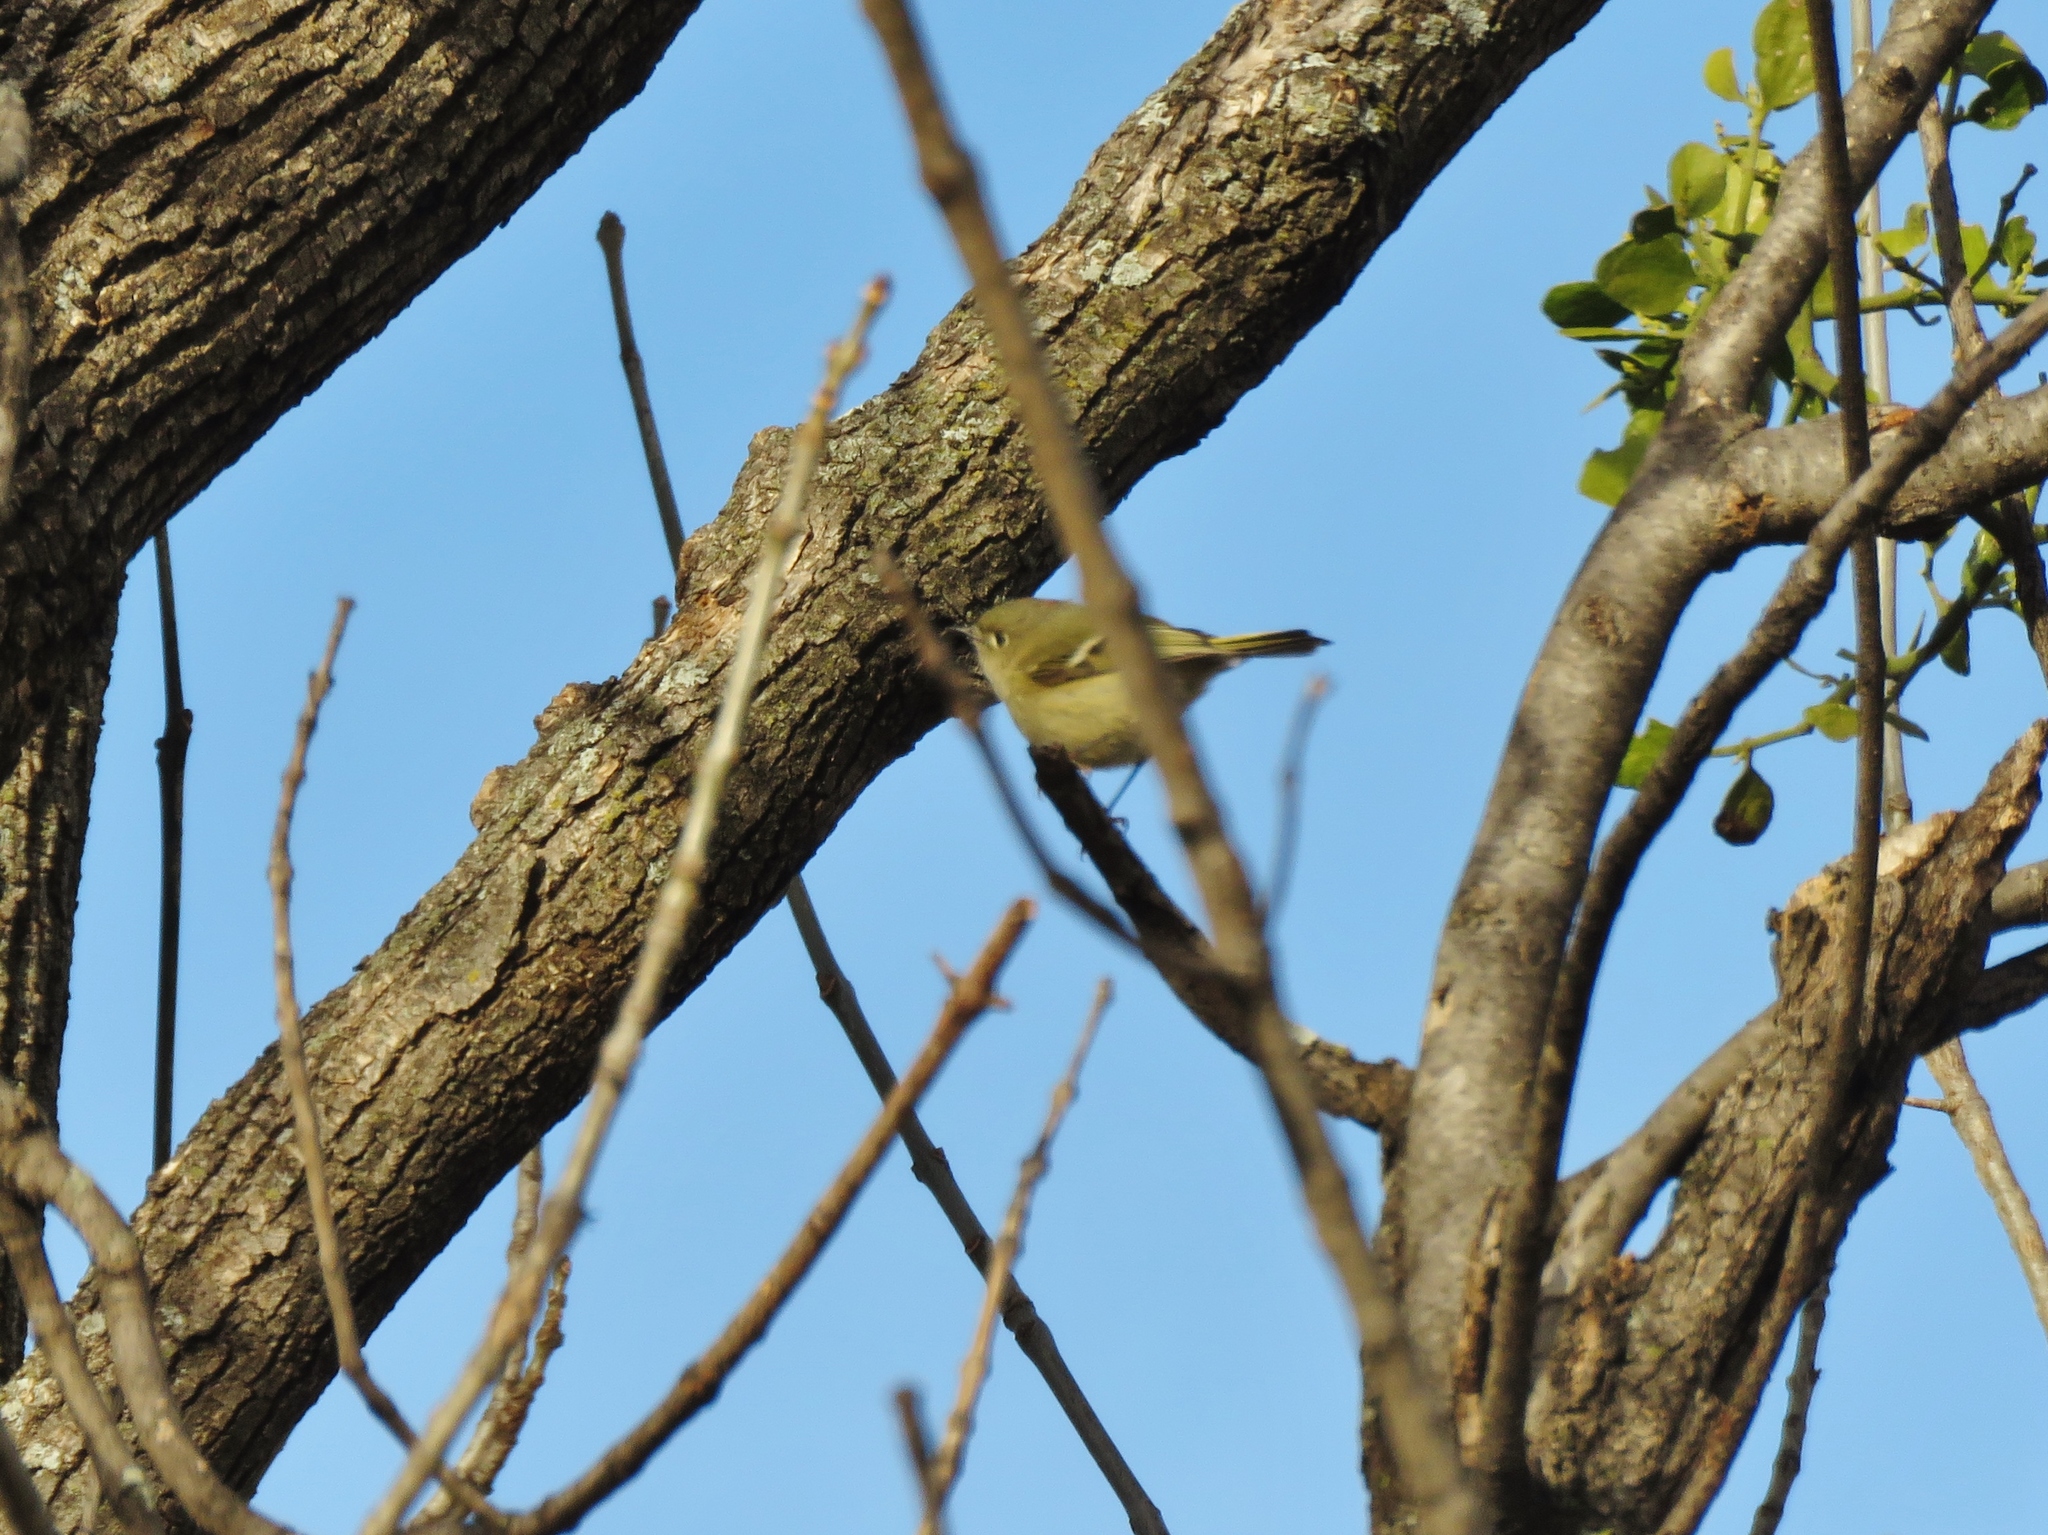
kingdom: Animalia
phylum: Chordata
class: Aves
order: Passeriformes
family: Regulidae
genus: Regulus
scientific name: Regulus calendula
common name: Ruby-crowned kinglet
